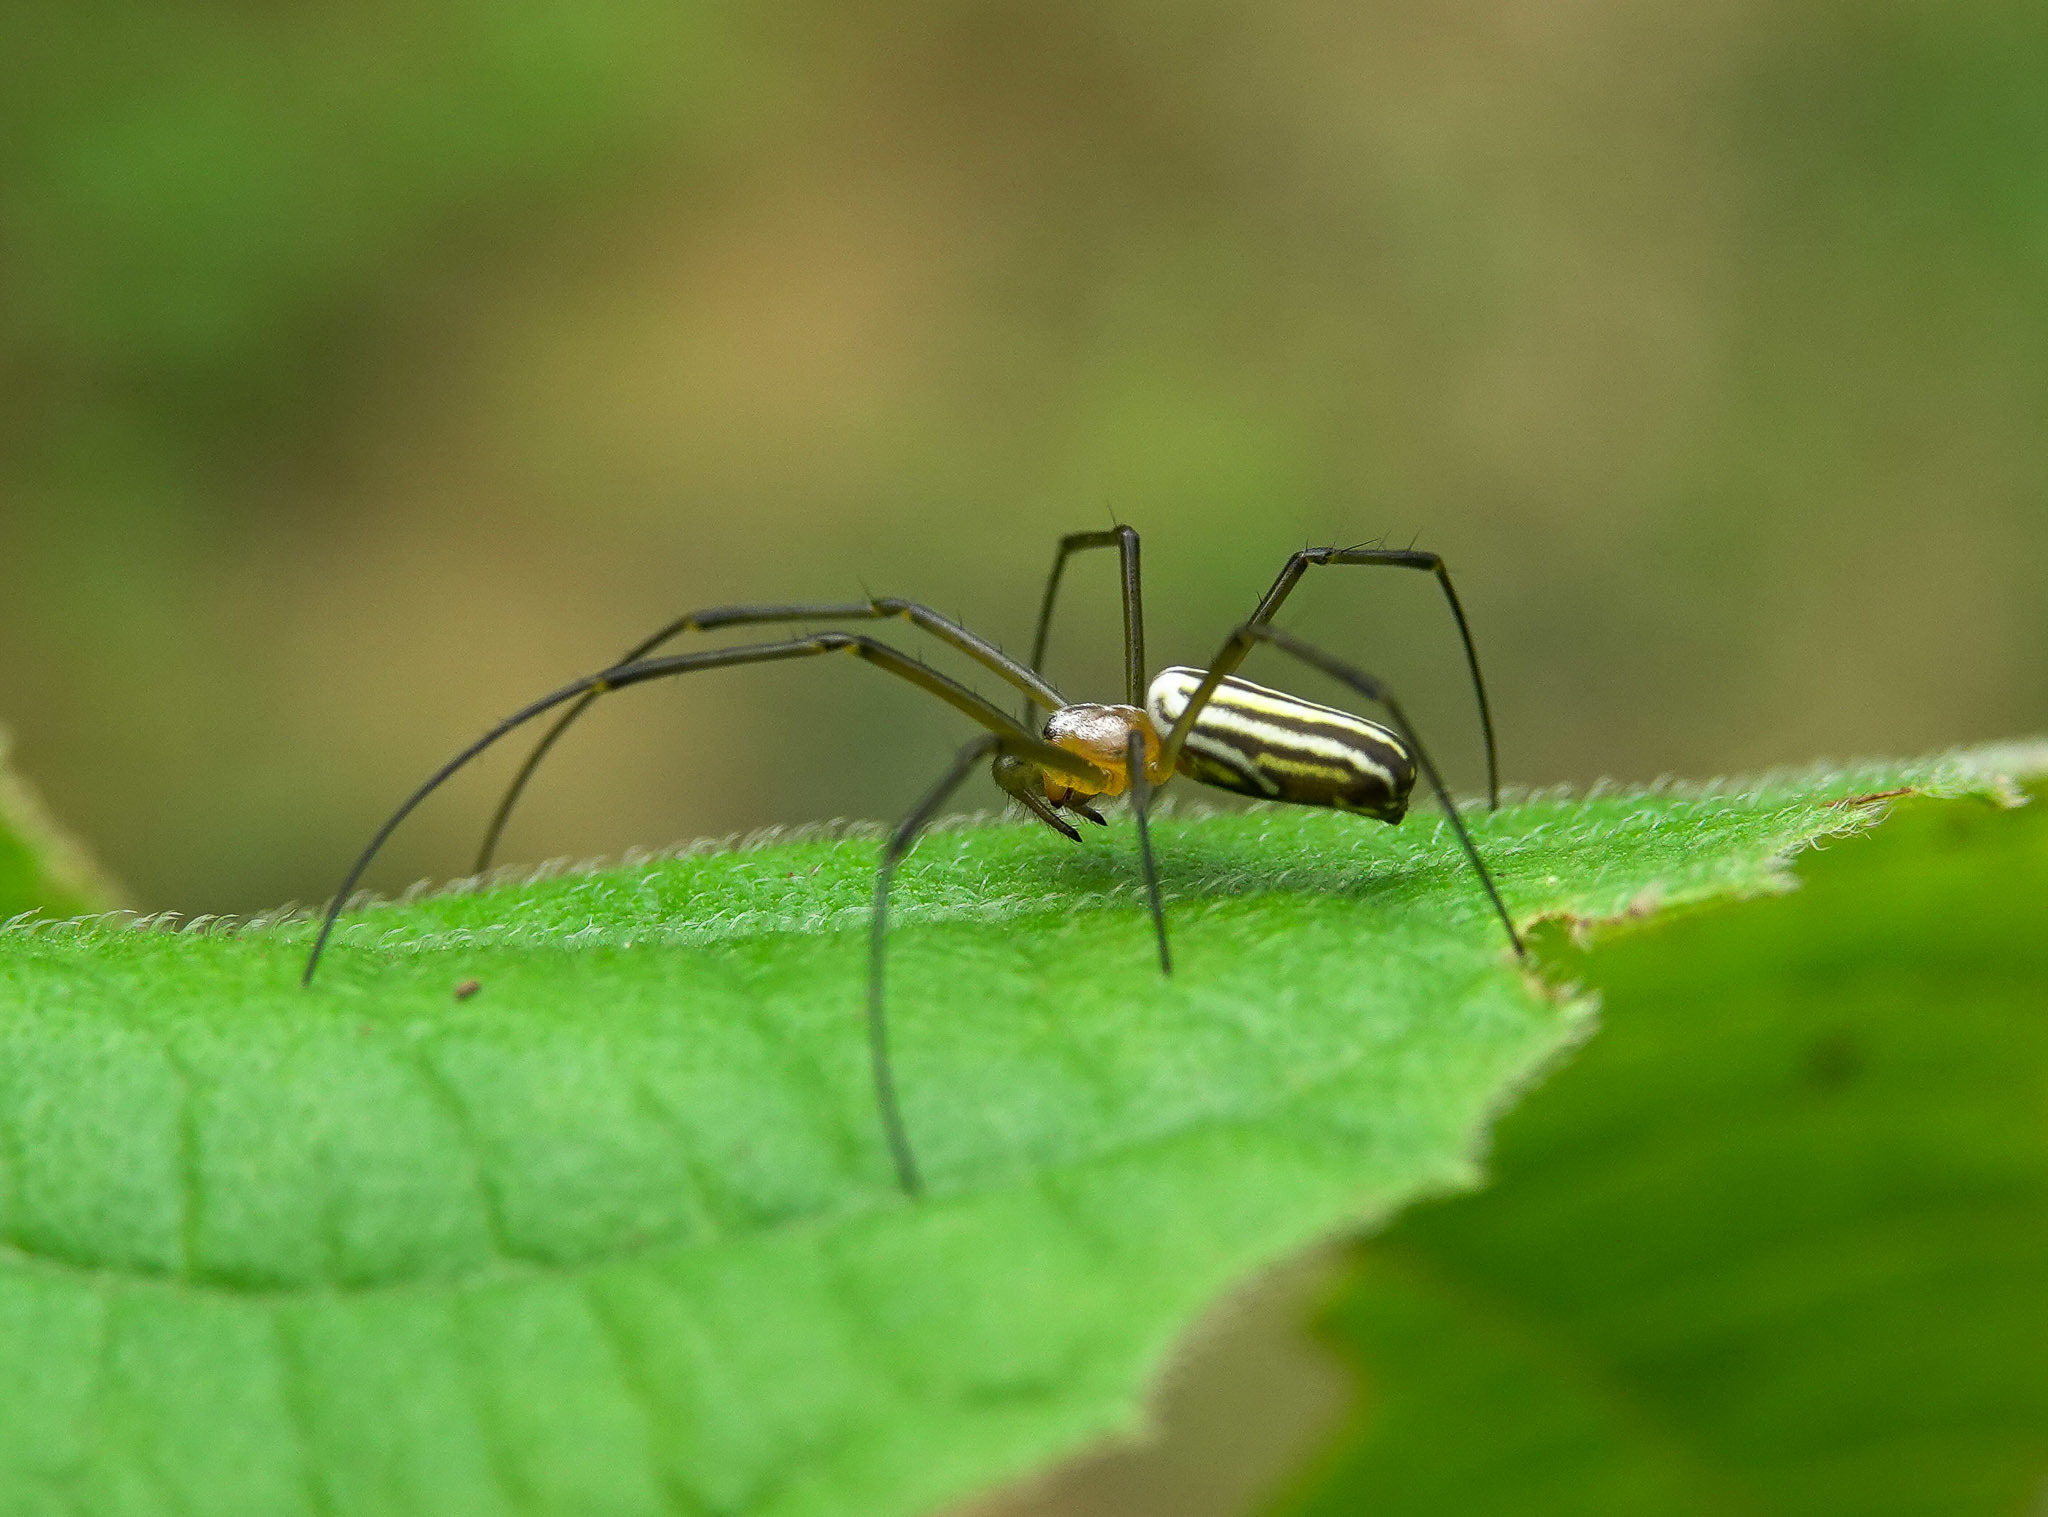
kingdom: Animalia
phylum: Arthropoda
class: Arachnida
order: Araneae
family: Araneidae
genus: Nephila
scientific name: Nephila pilipes
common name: Giant golden orb weaver
